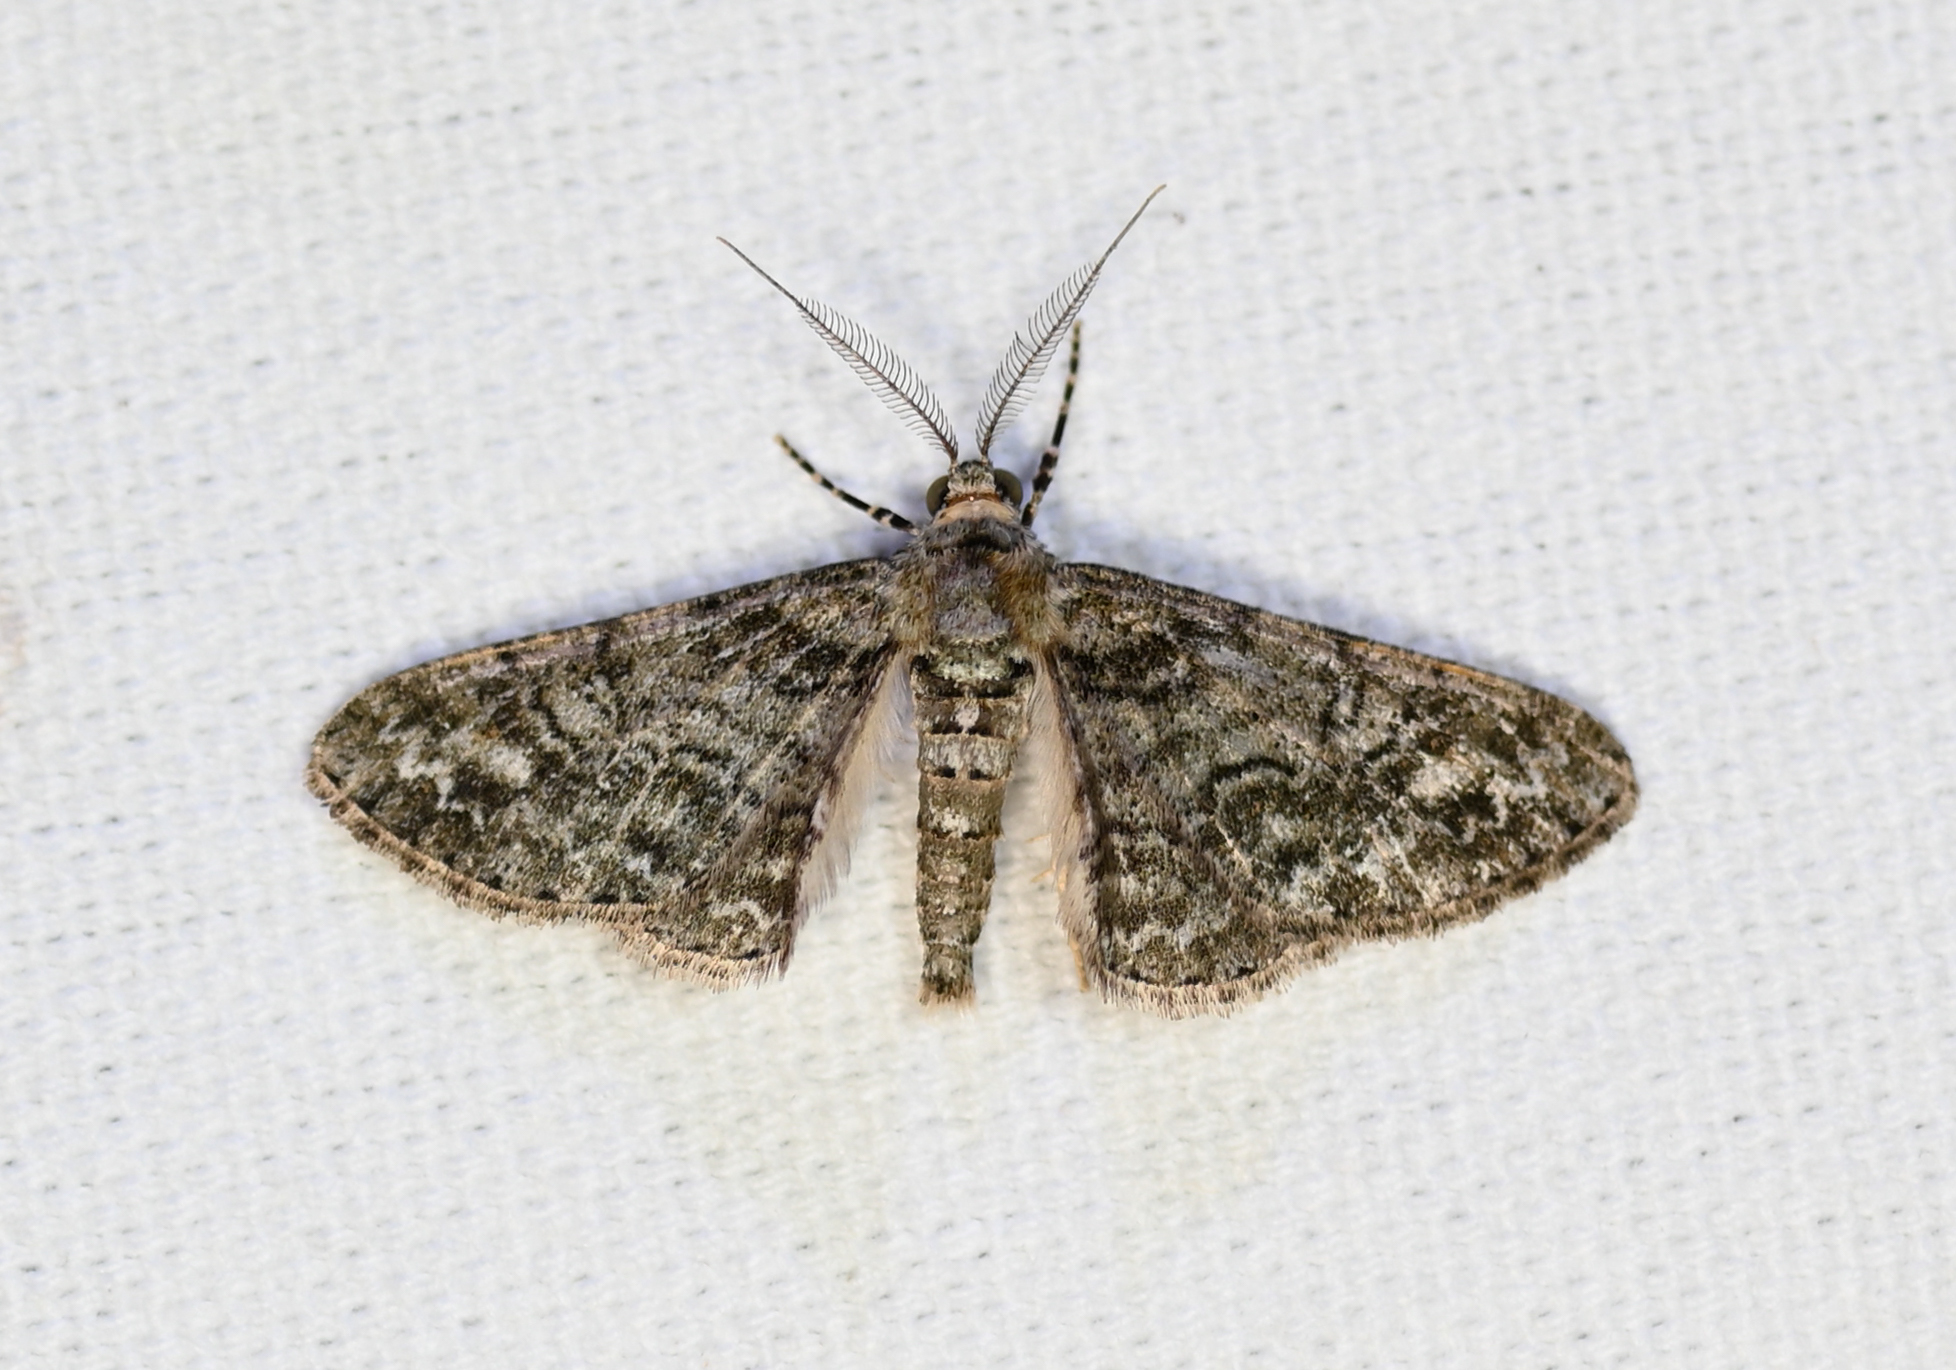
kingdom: Animalia
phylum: Arthropoda
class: Insecta
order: Lepidoptera
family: Geometridae
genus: Cleora
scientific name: Cleora sublunaria
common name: Double-lined gray
